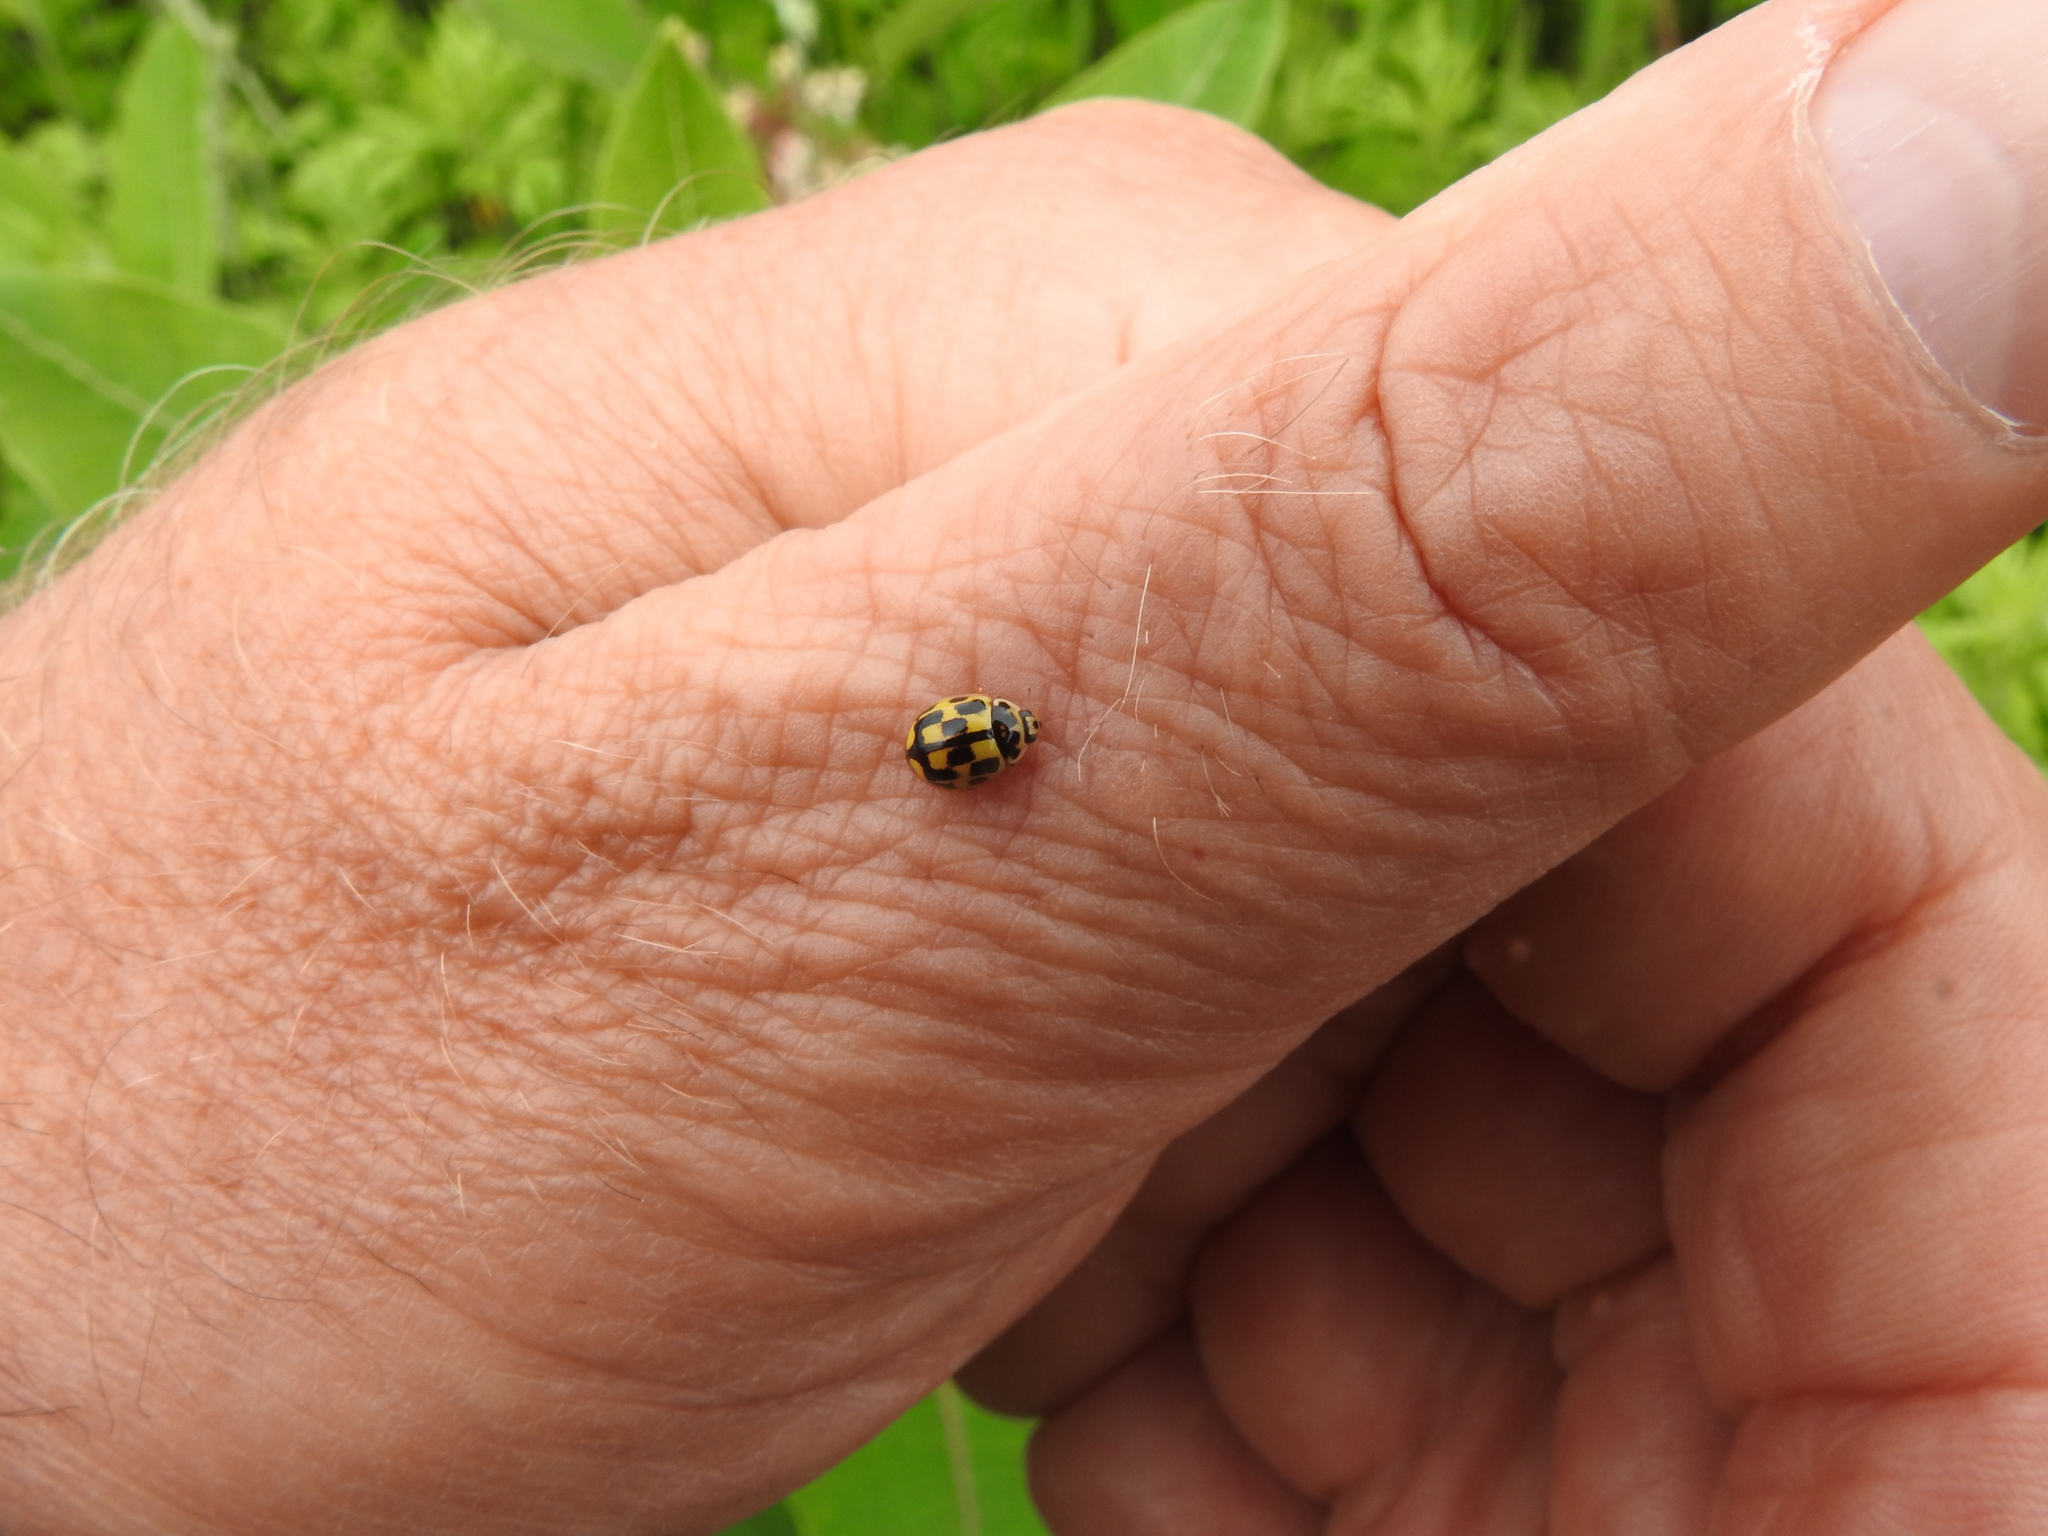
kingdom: Animalia
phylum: Arthropoda
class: Insecta
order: Coleoptera
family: Coccinellidae
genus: Propylaea
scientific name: Propylaea quatuordecimpunctata
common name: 14-spotted ladybird beetle
